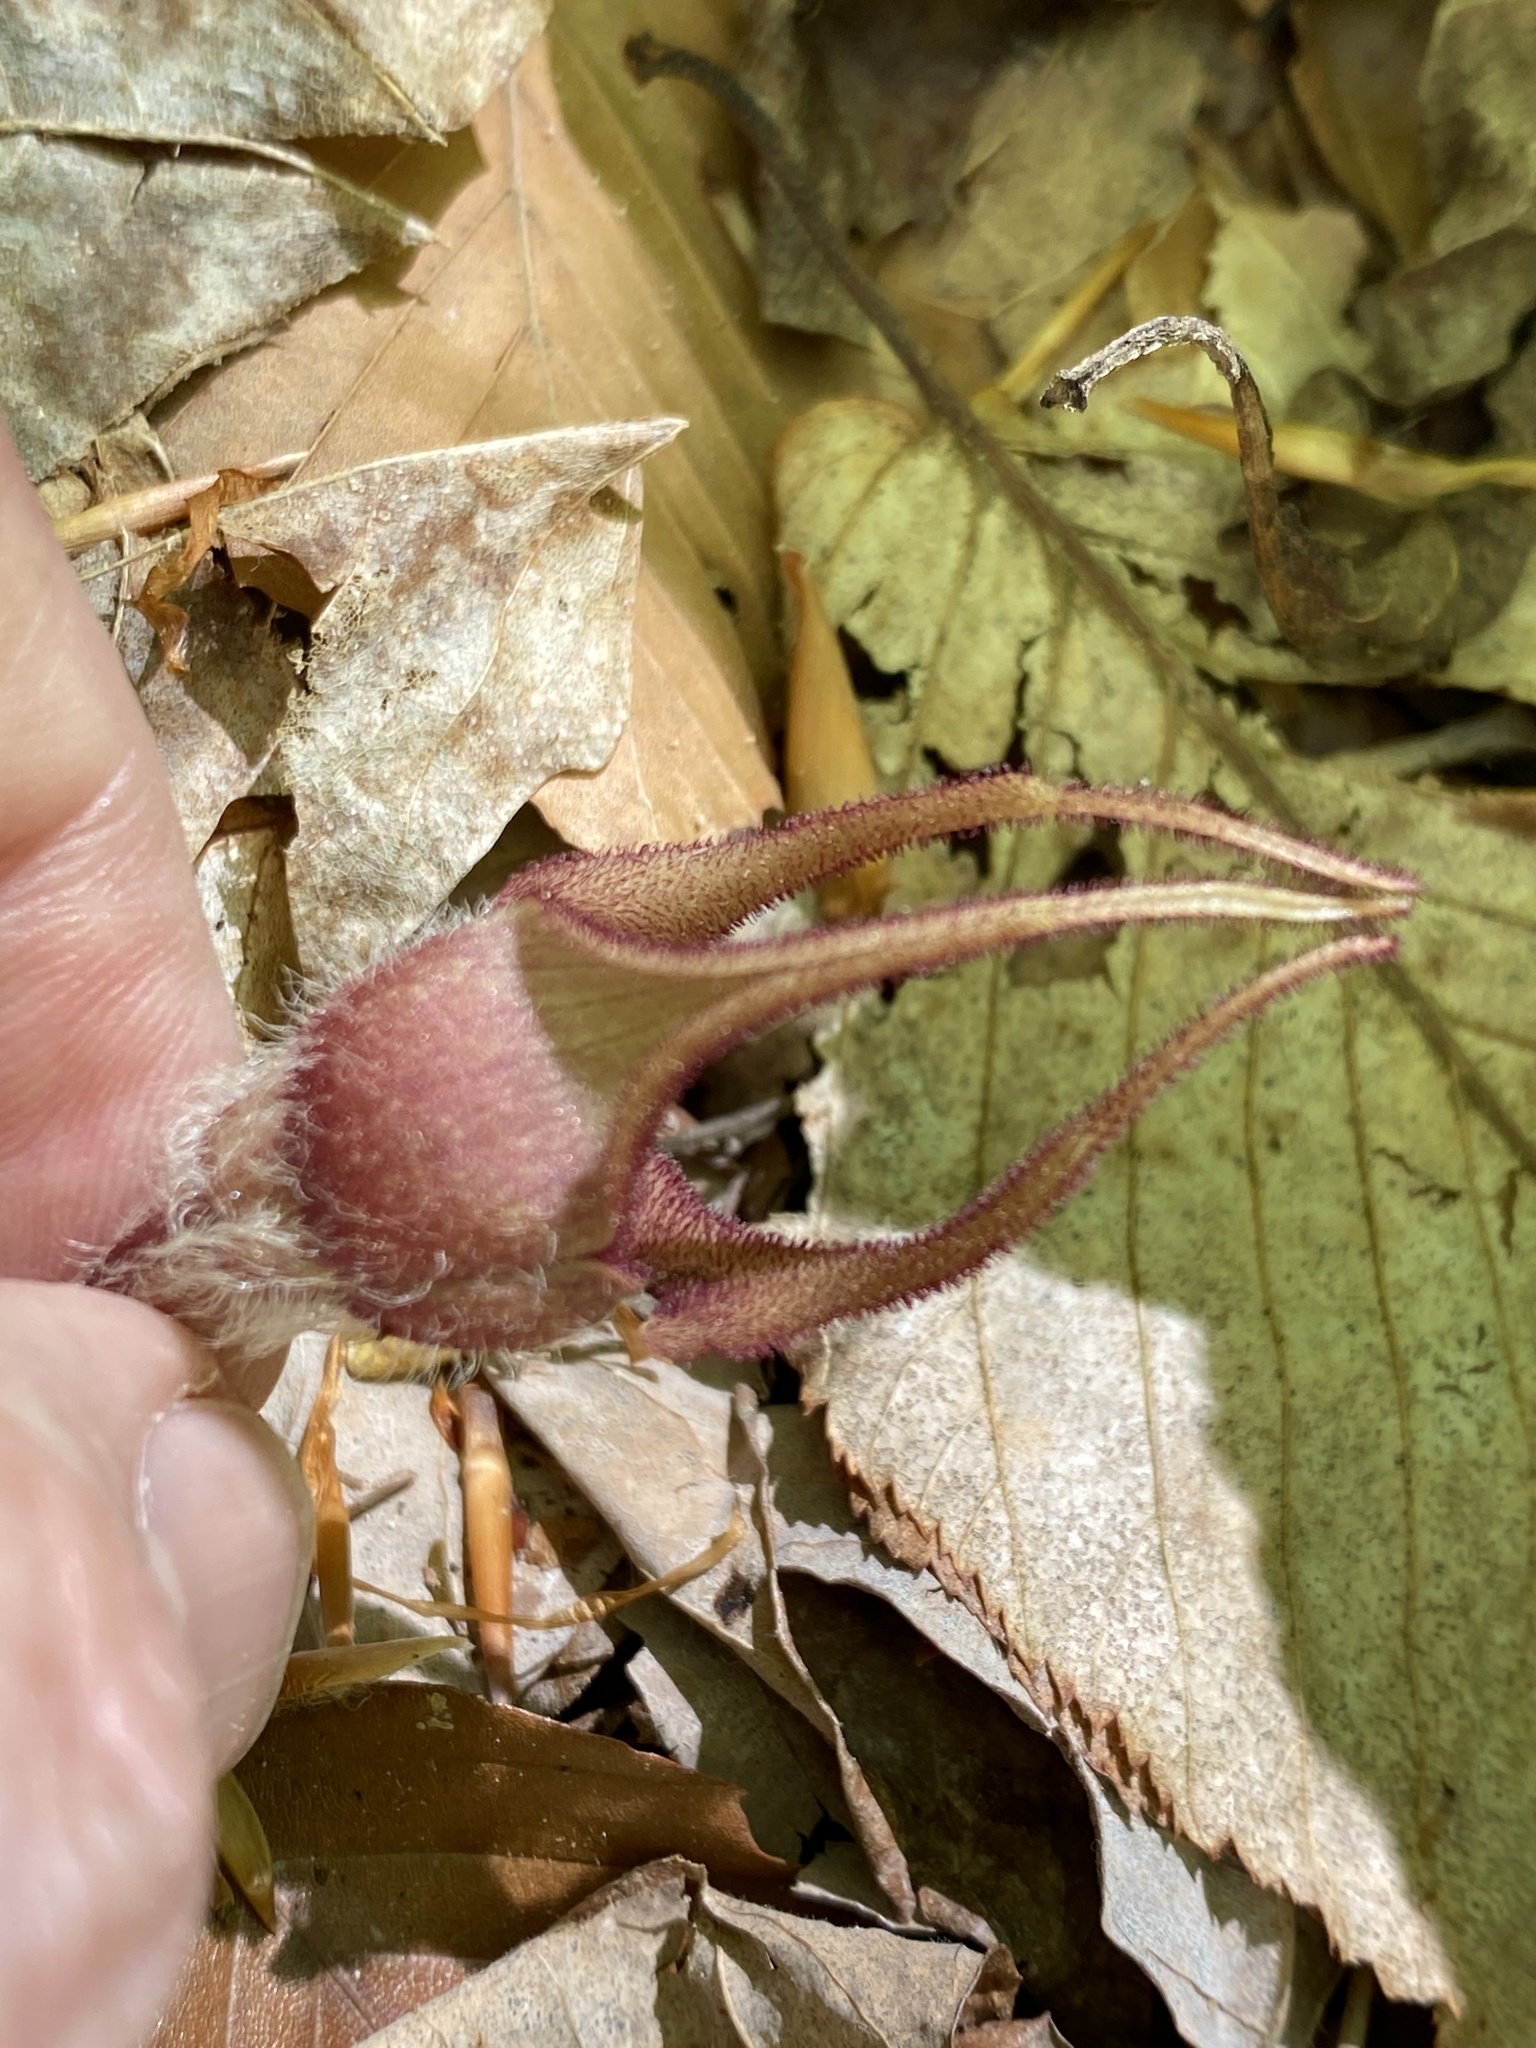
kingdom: Plantae
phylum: Tracheophyta
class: Magnoliopsida
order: Piperales
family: Aristolochiaceae
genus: Asarum
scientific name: Asarum canadense
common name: Wild ginger
